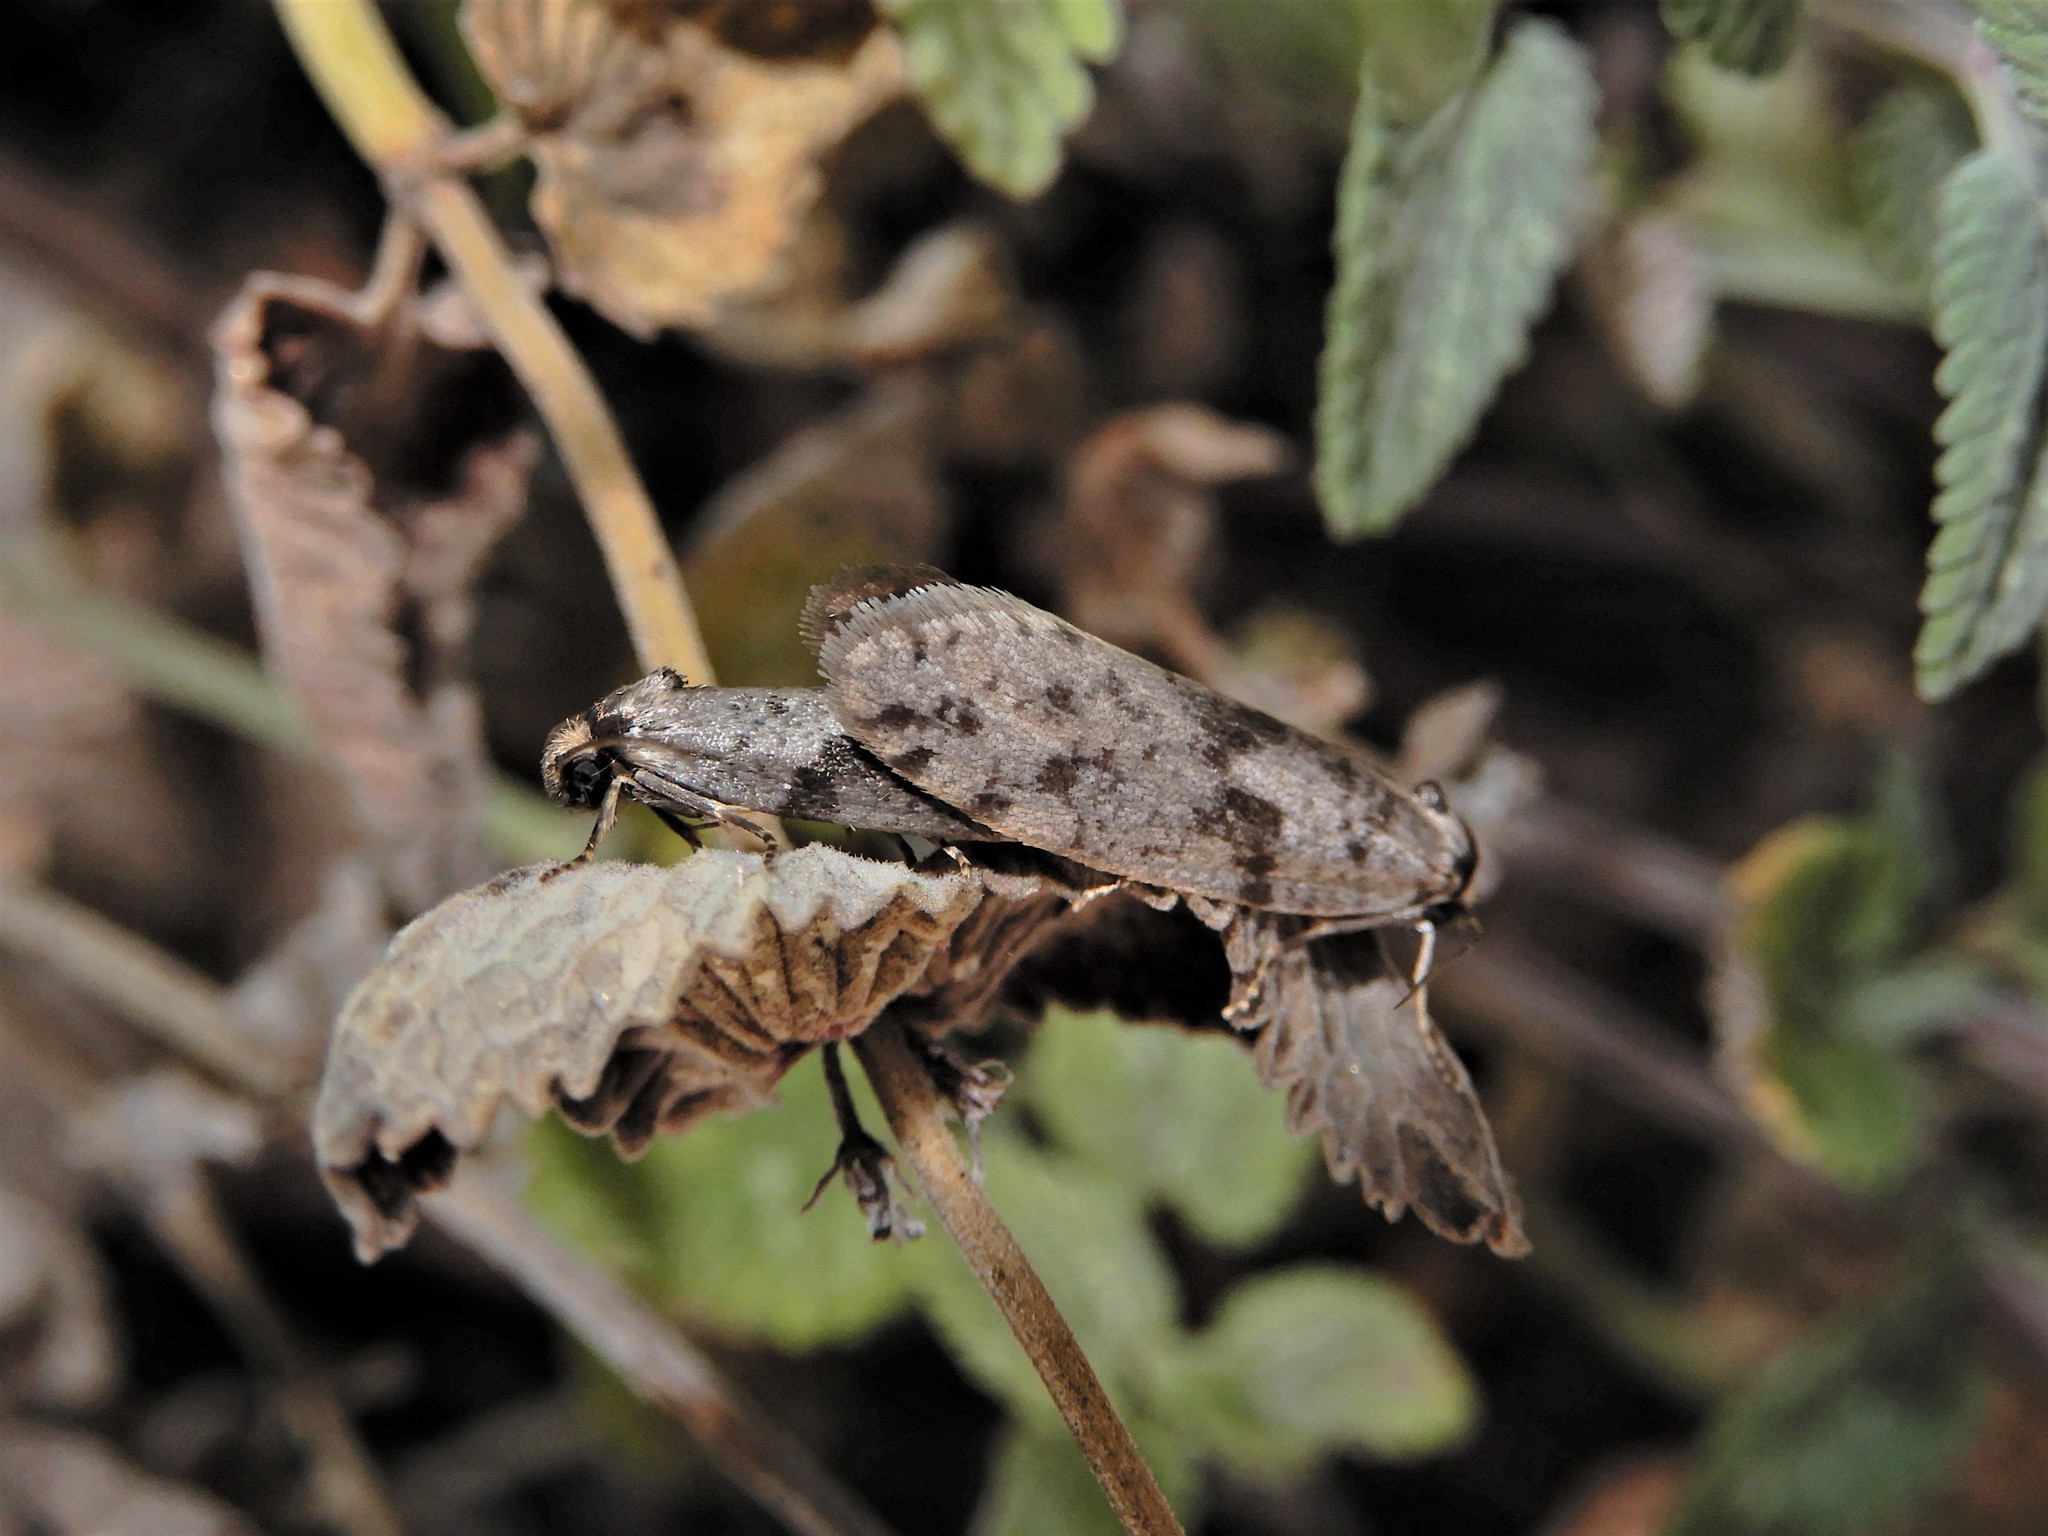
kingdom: Animalia
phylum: Arthropoda
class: Insecta
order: Lepidoptera
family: Psychidae
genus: Lepidoscia
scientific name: Lepidoscia protorna
